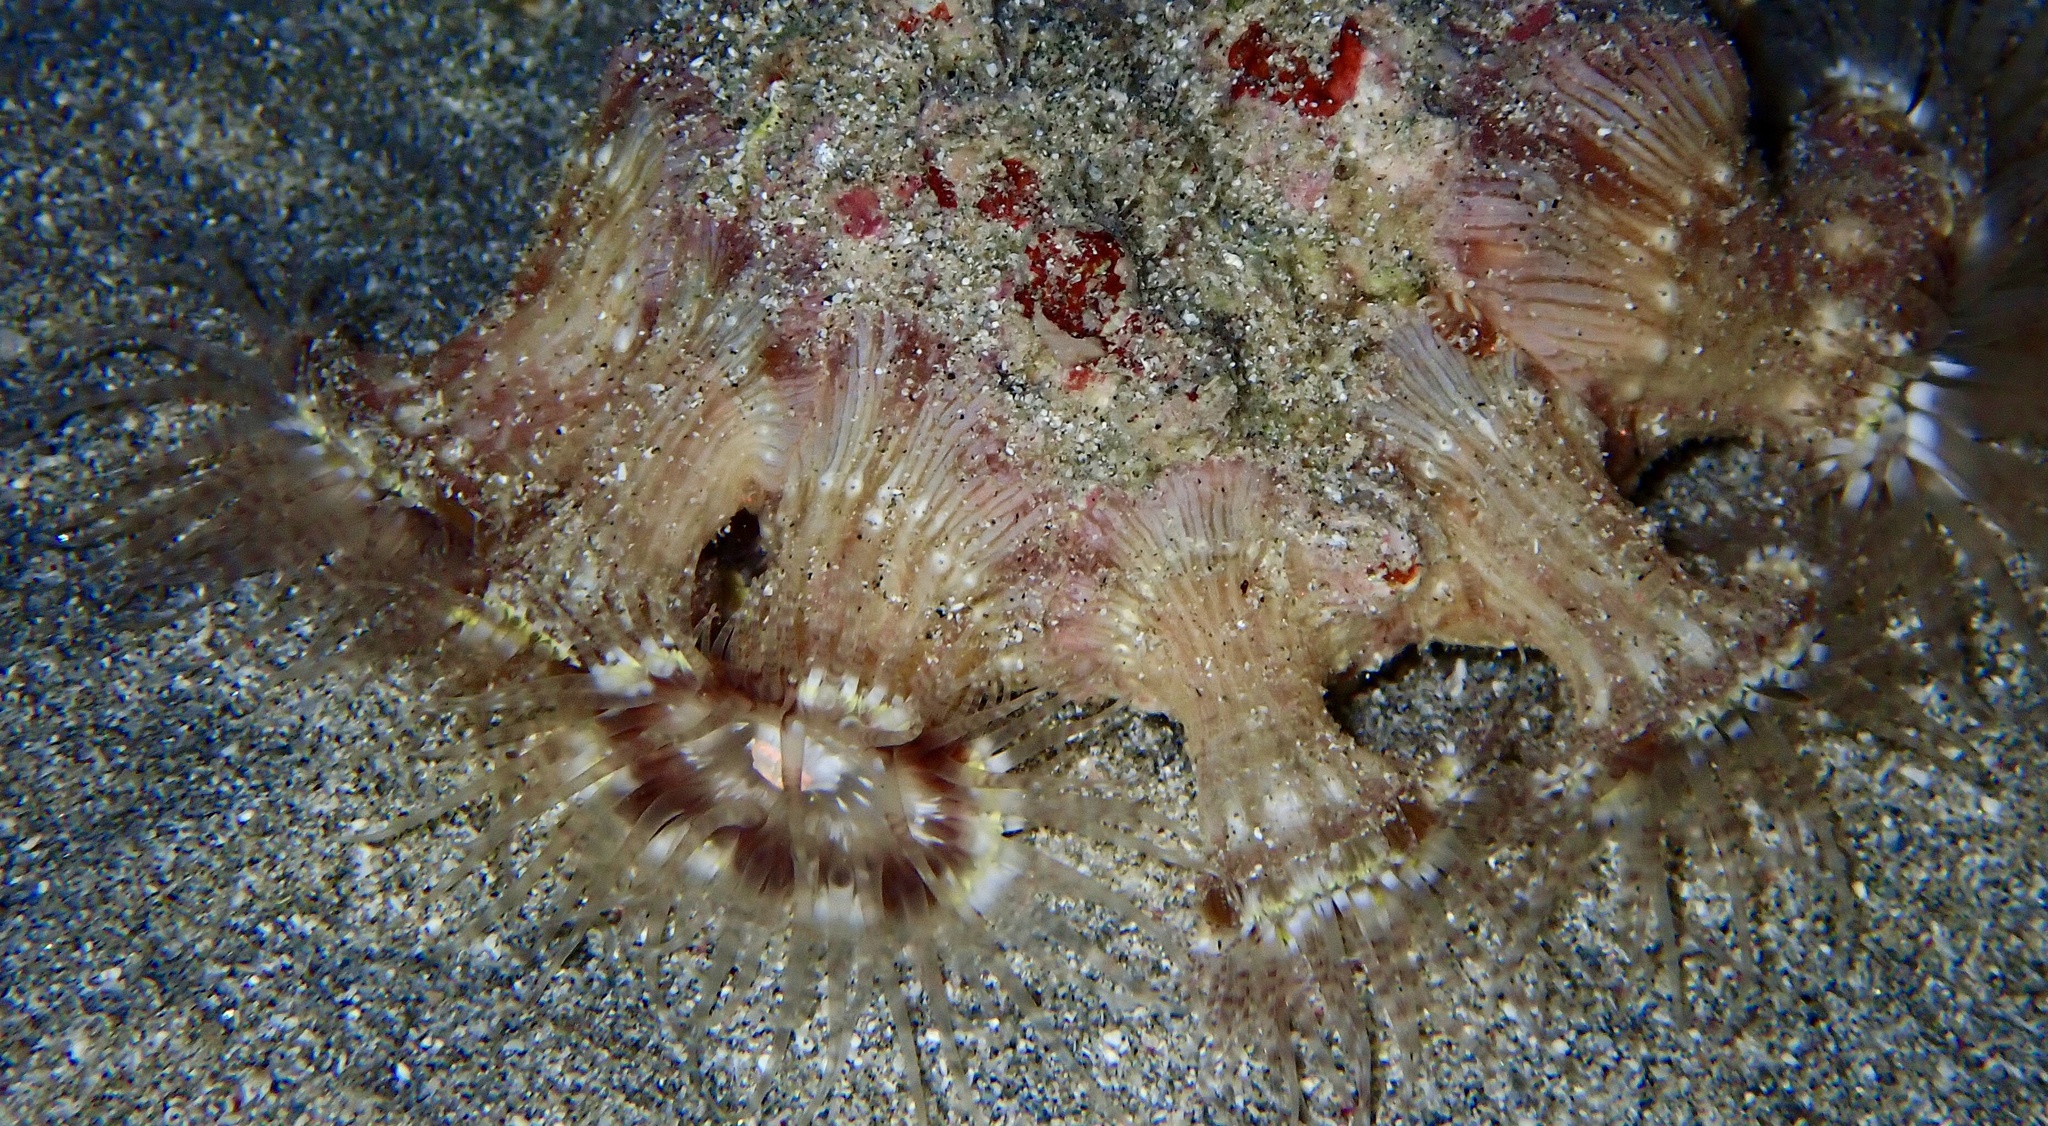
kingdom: Animalia
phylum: Cnidaria
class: Anthozoa
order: Actiniaria
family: Hormathiidae
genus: Calliactis
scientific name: Calliactis polypus
